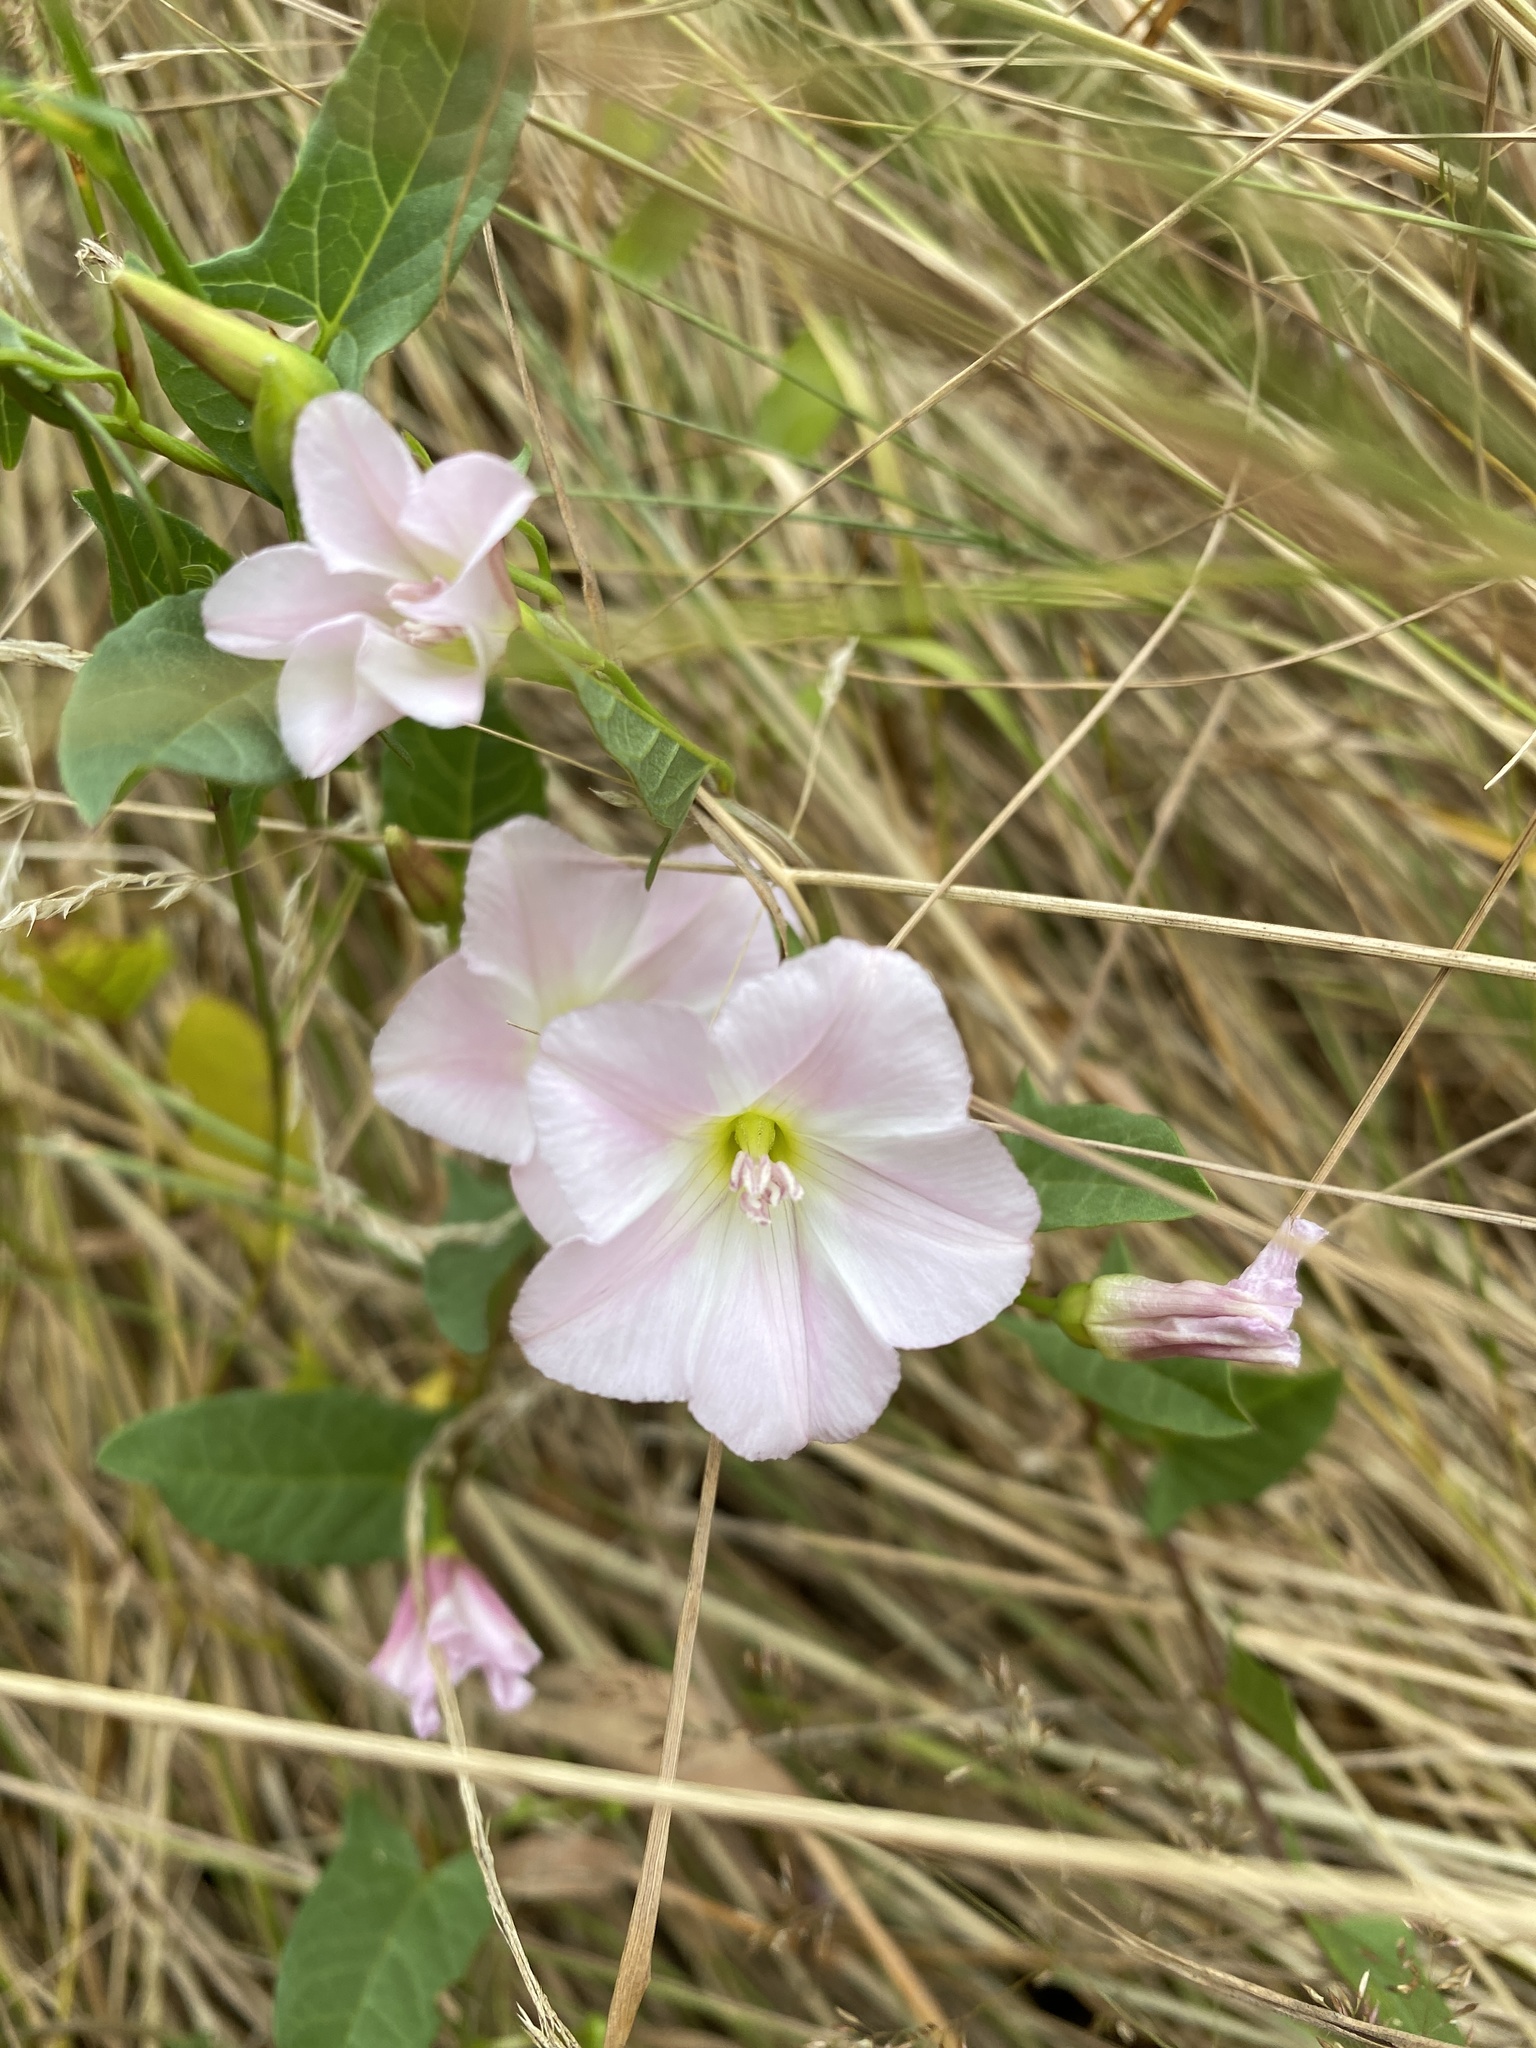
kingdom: Plantae
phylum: Tracheophyta
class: Magnoliopsida
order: Solanales
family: Convolvulaceae
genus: Convolvulus
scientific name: Convolvulus arvensis
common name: Field bindweed
